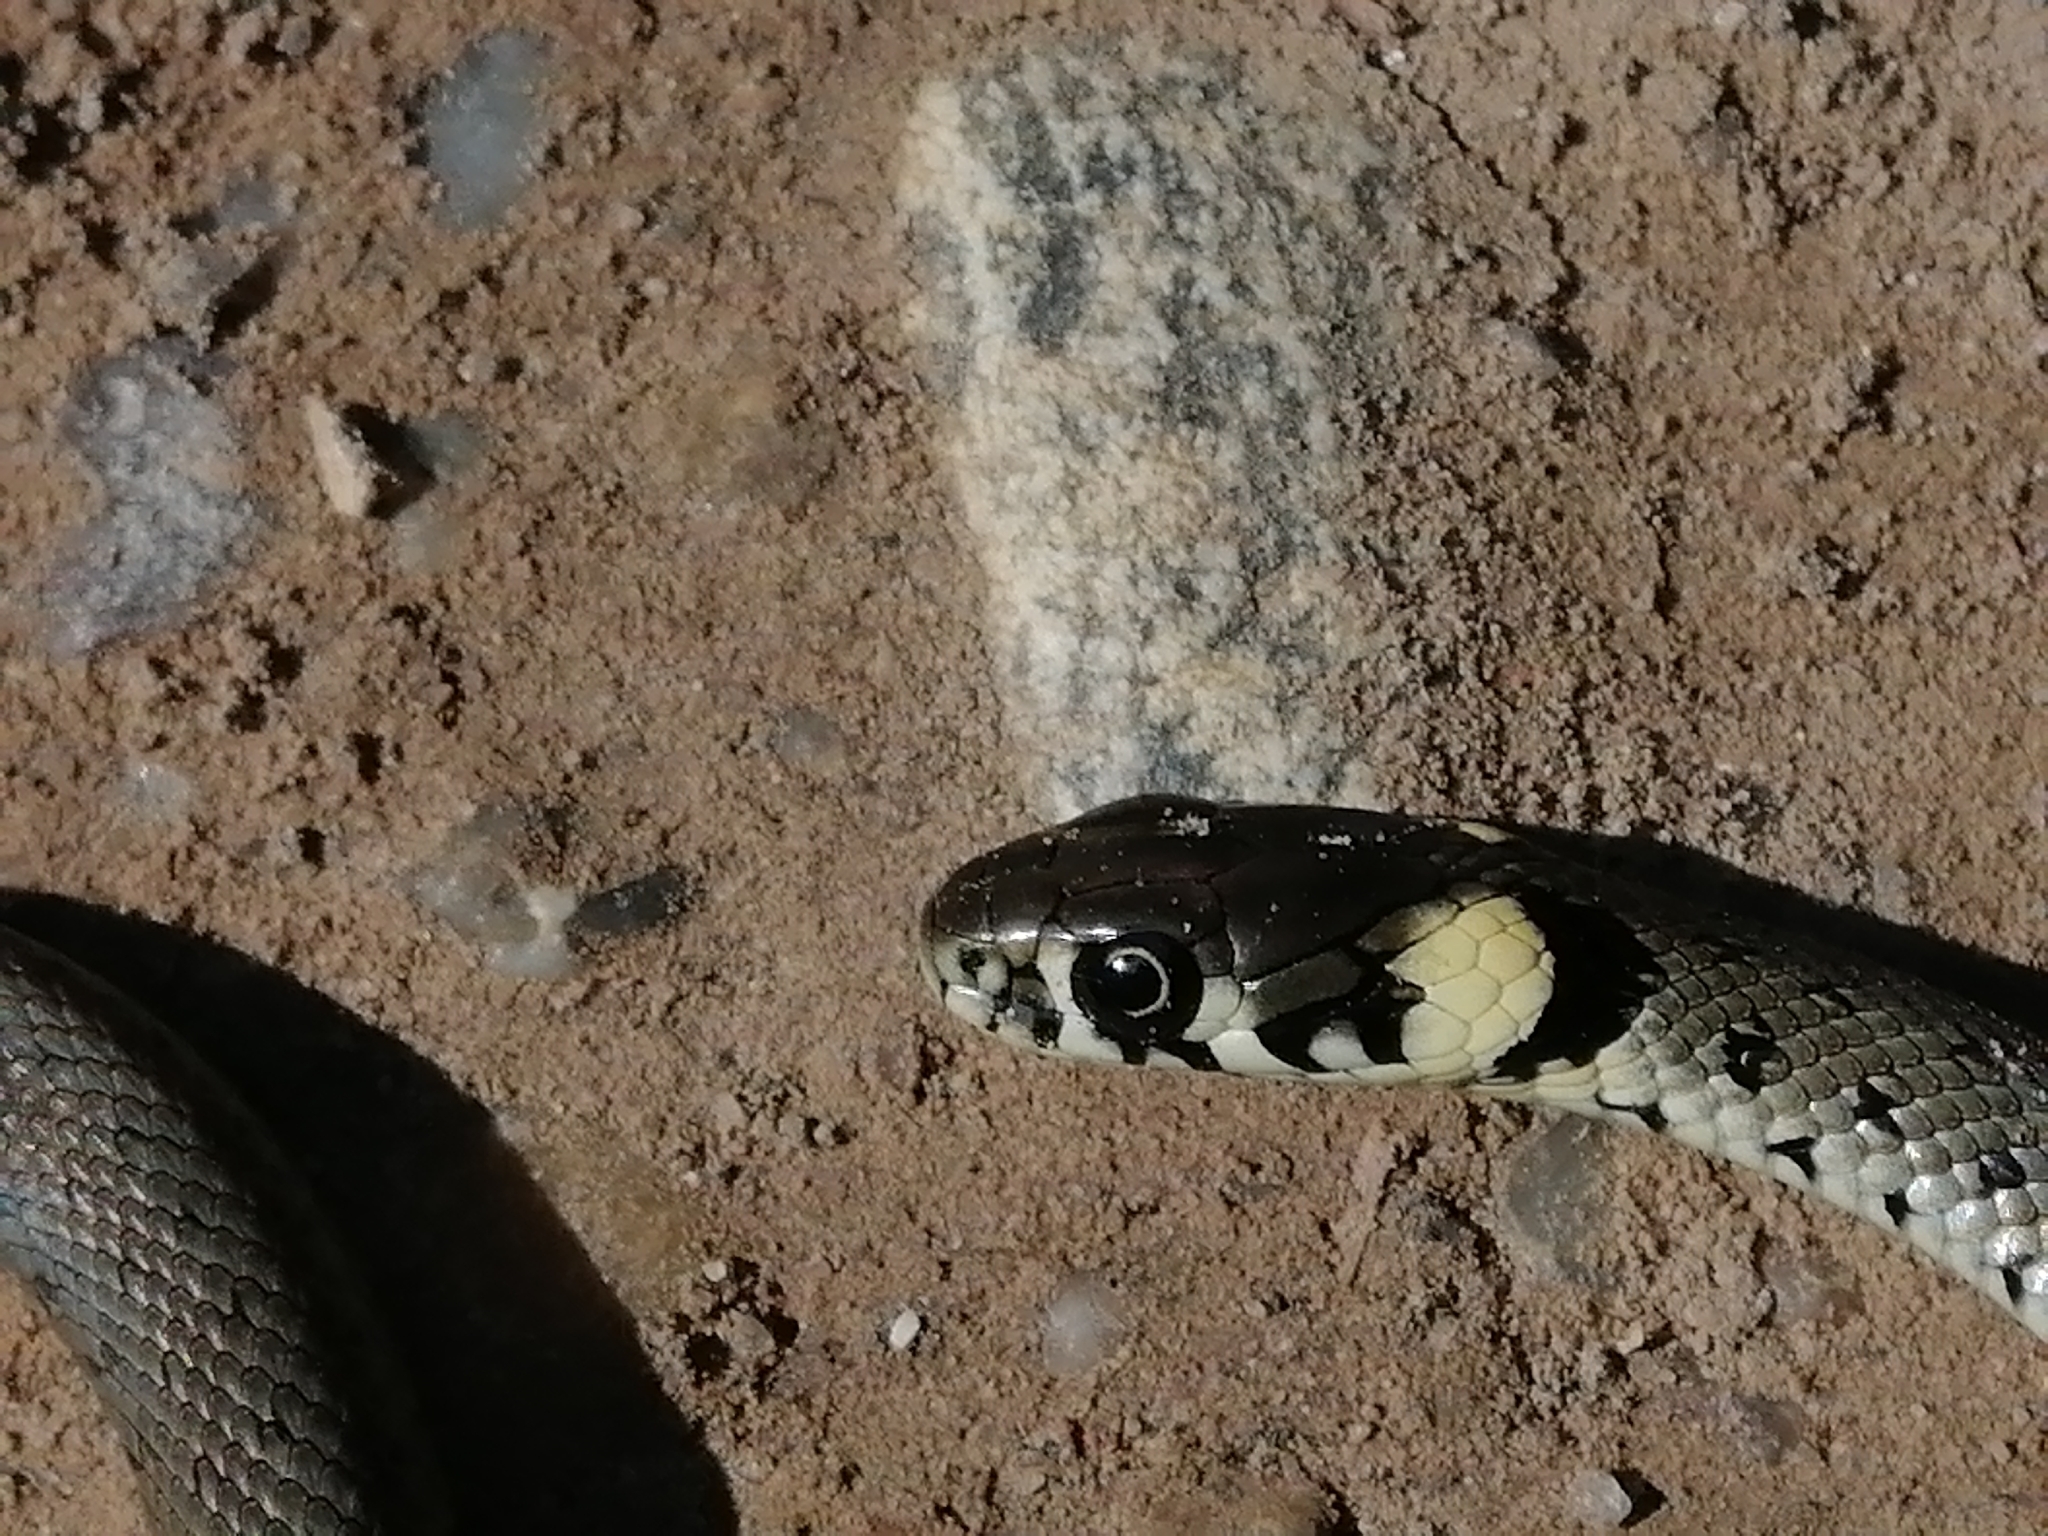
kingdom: Animalia
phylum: Chordata
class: Squamata
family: Colubridae
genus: Natrix
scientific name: Natrix natrix
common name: Grass snake
